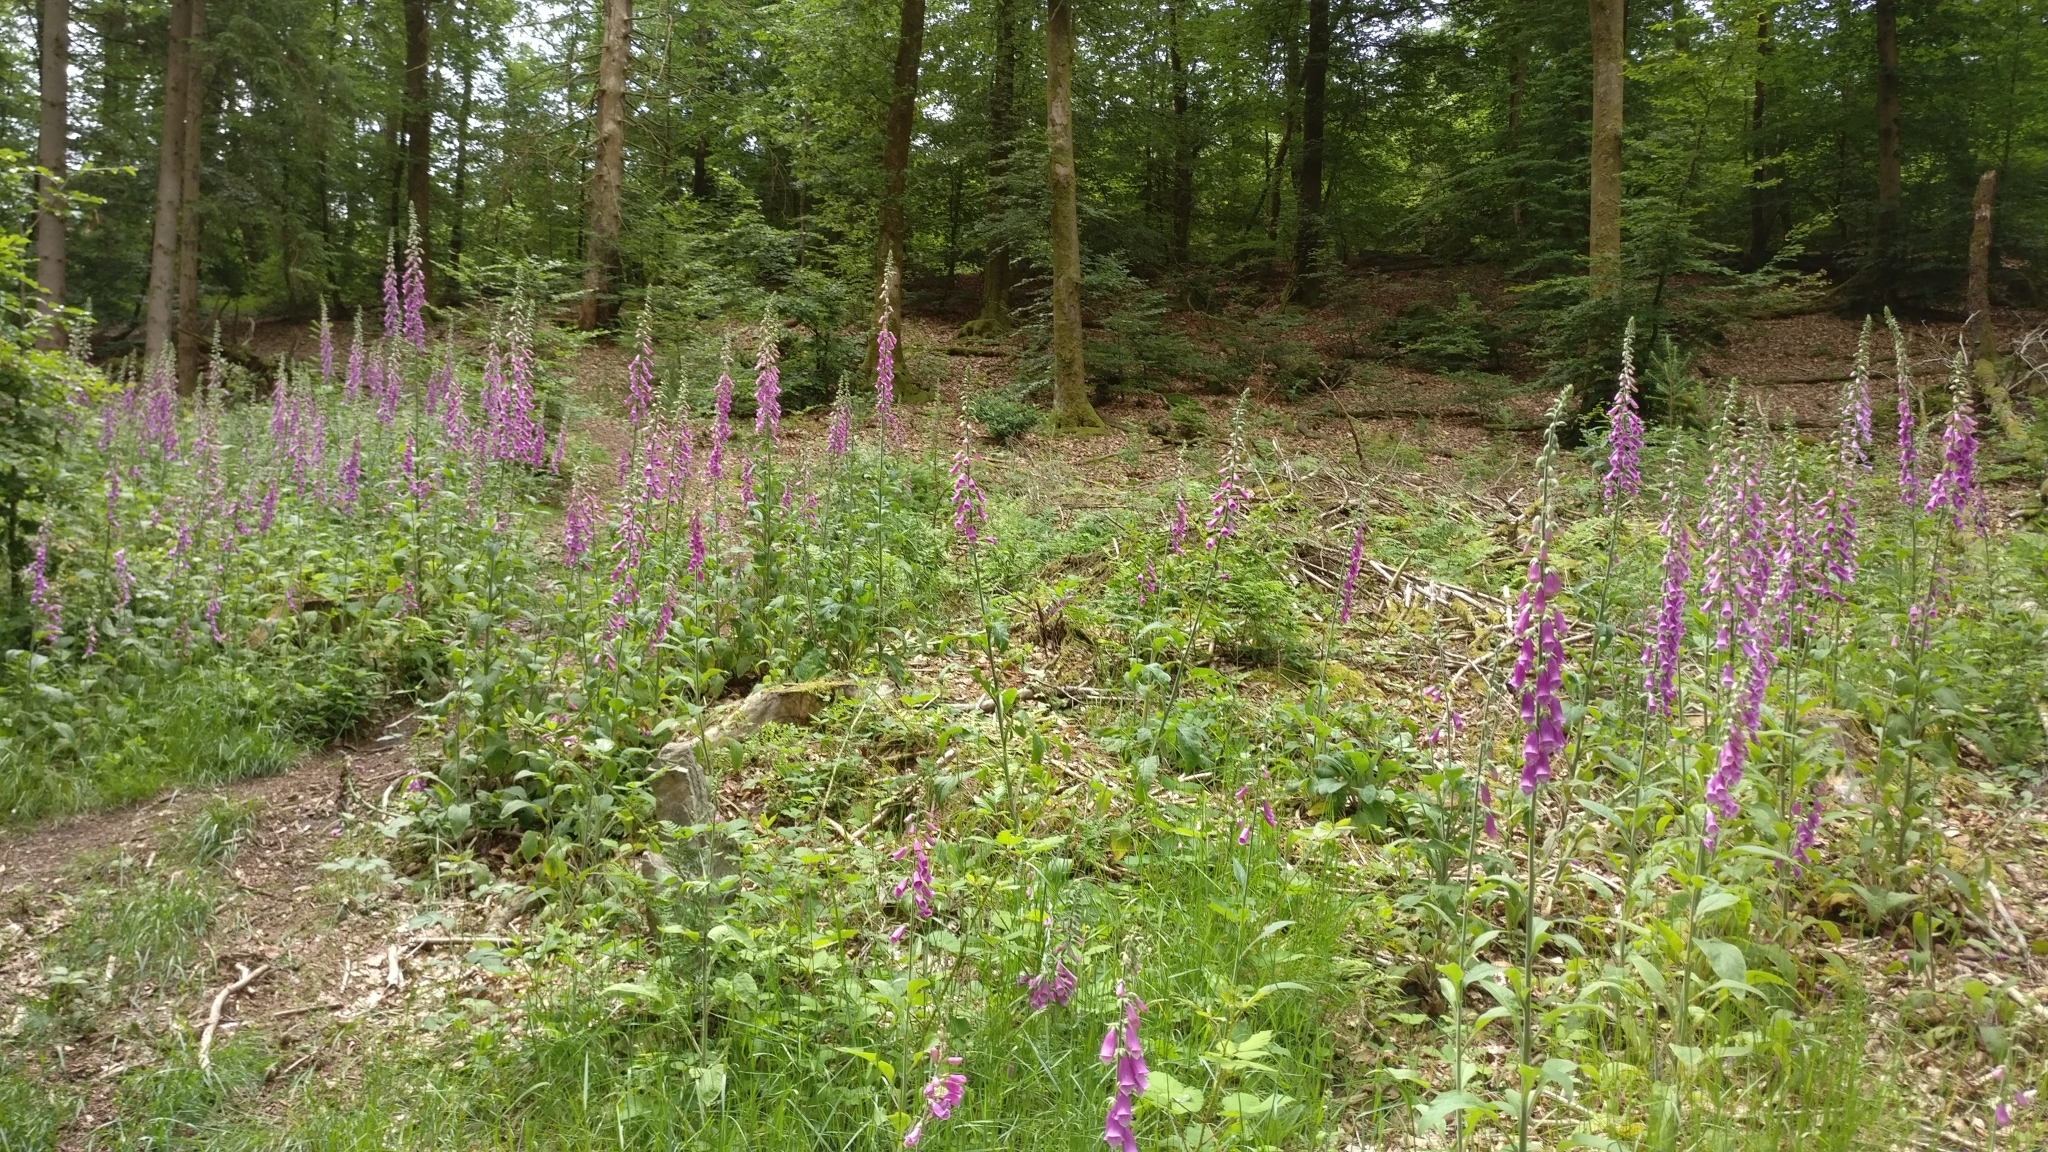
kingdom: Plantae
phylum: Tracheophyta
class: Magnoliopsida
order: Lamiales
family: Plantaginaceae
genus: Digitalis
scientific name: Digitalis purpurea
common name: Foxglove
